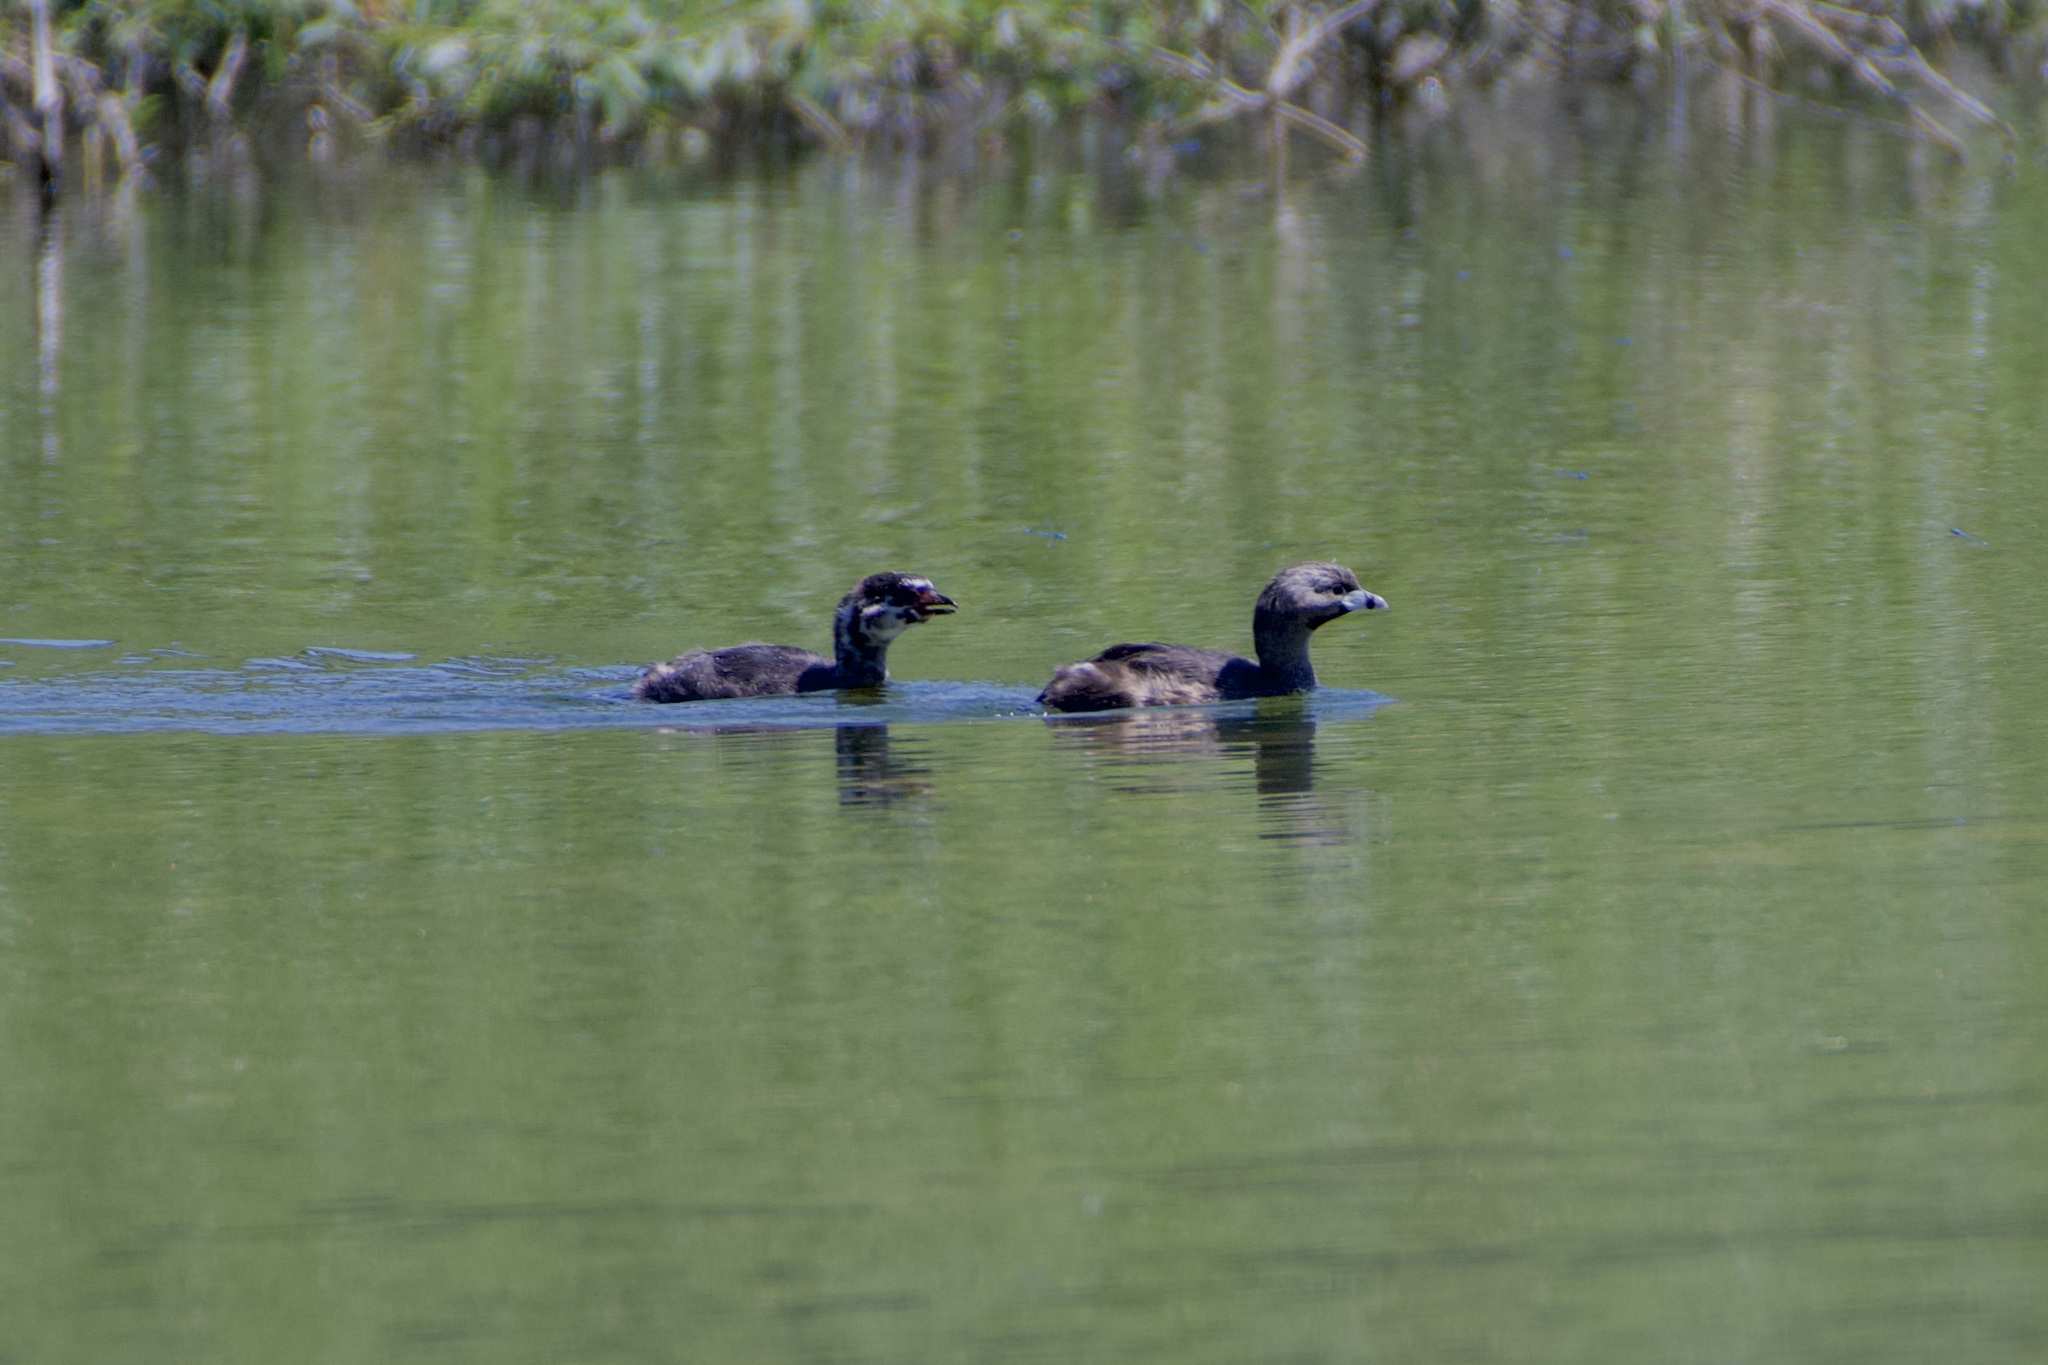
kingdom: Animalia
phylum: Chordata
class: Aves
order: Podicipediformes
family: Podicipedidae
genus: Podilymbus
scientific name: Podilymbus podiceps
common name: Pied-billed grebe
